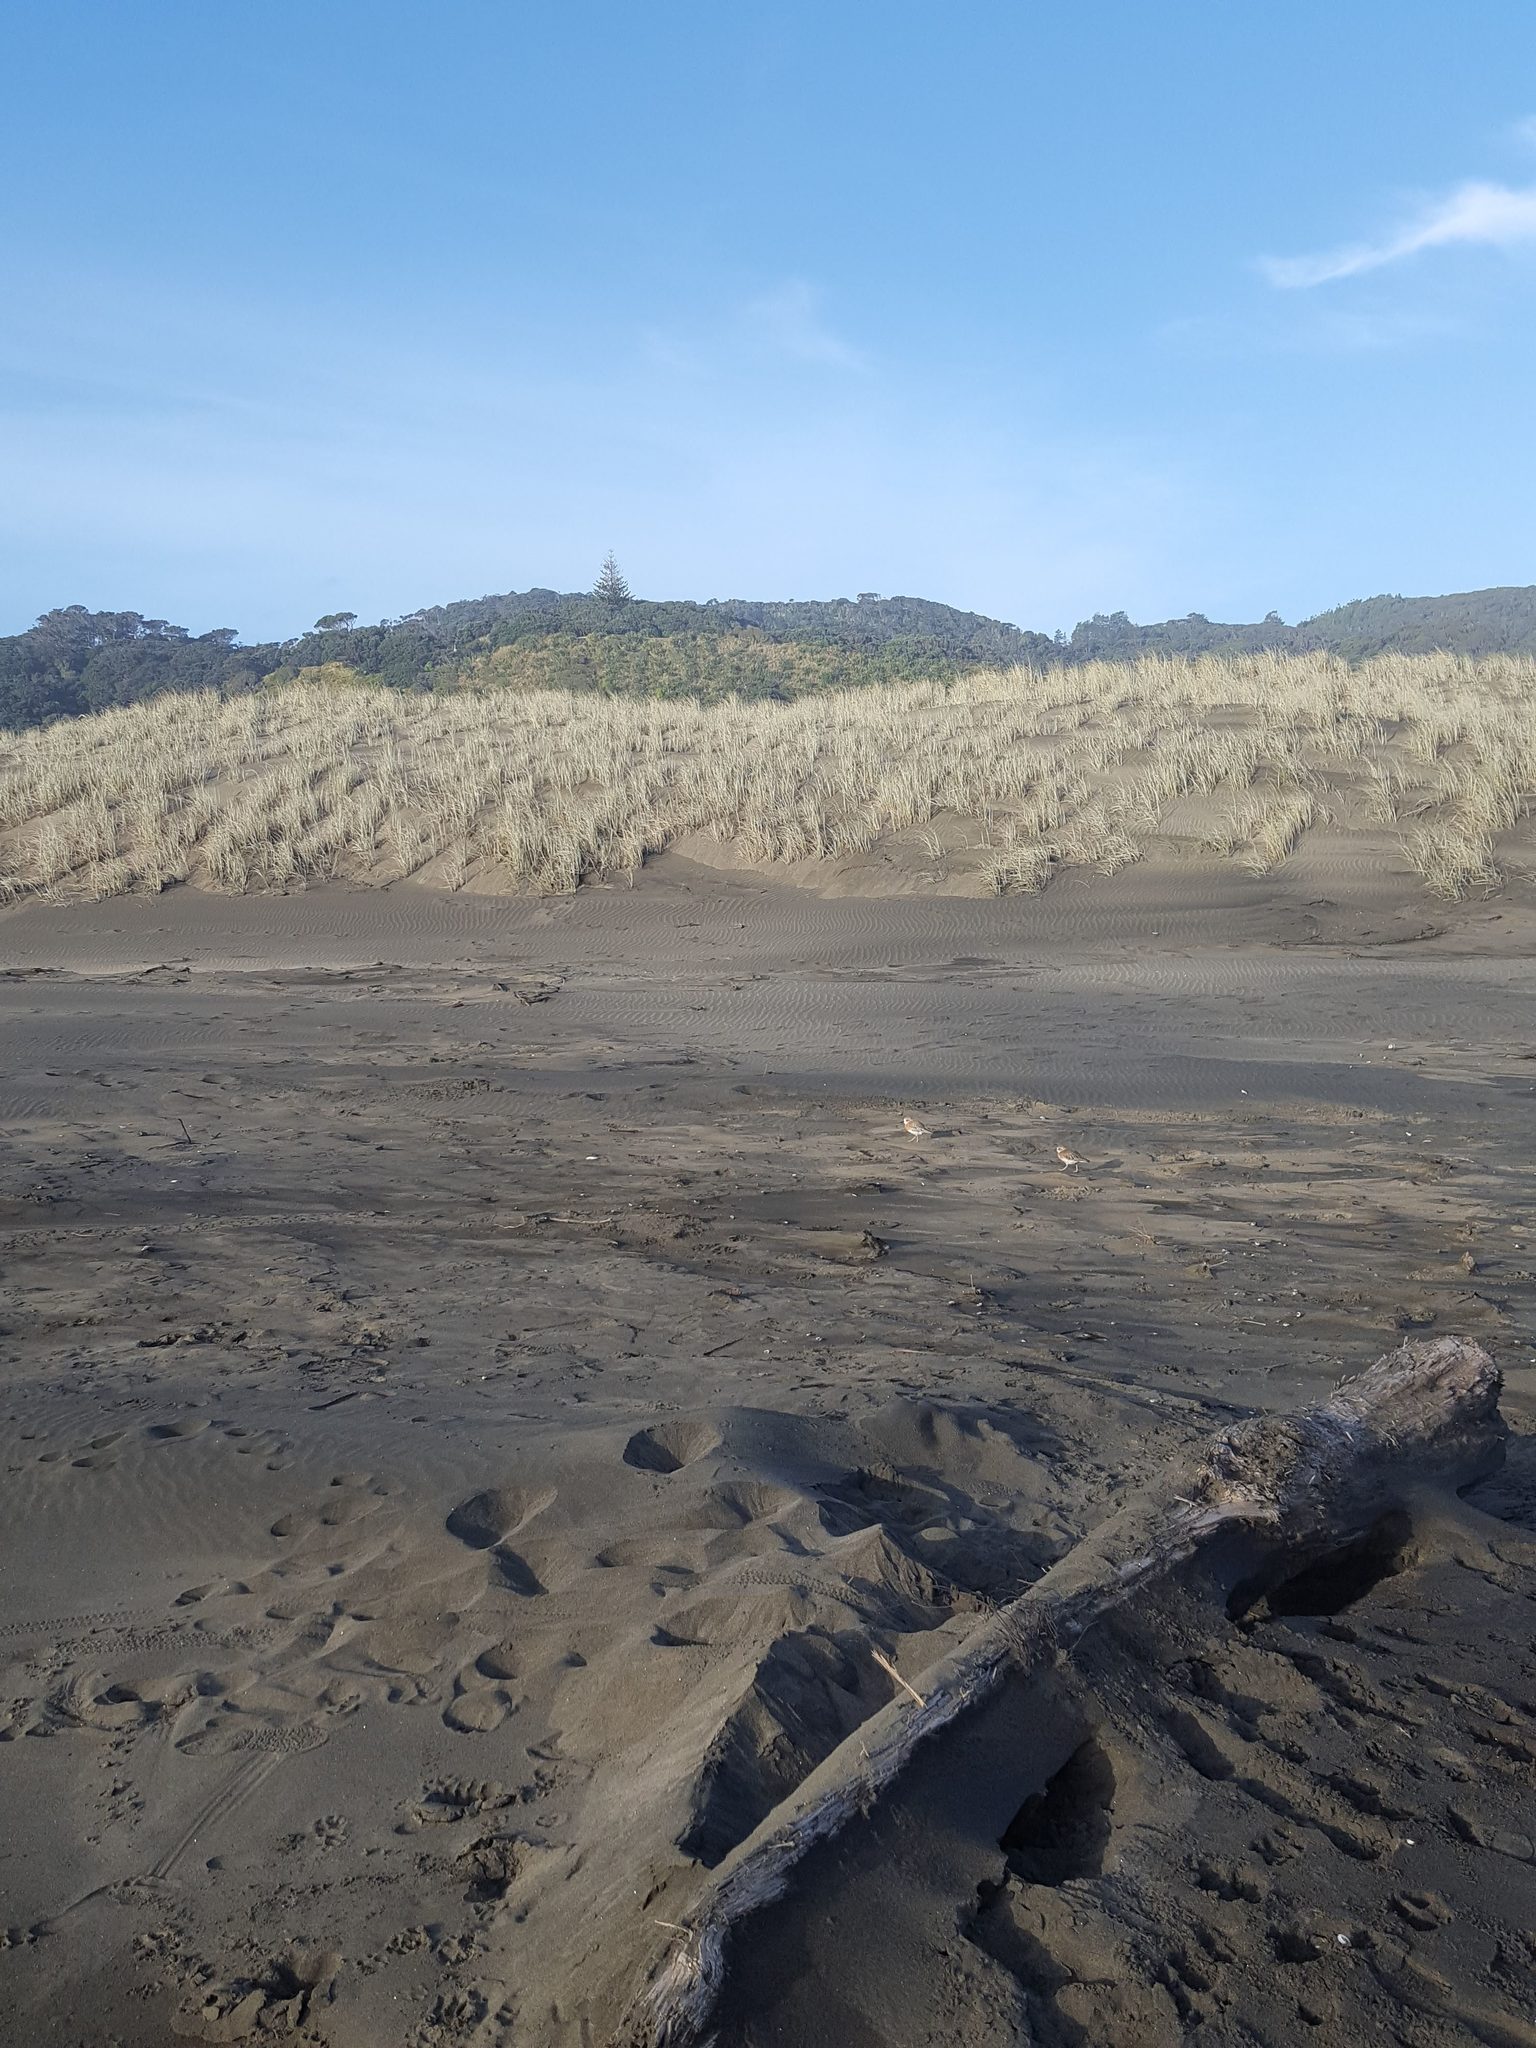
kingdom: Animalia
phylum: Chordata
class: Aves
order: Charadriiformes
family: Charadriidae
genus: Anarhynchus
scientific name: Anarhynchus
